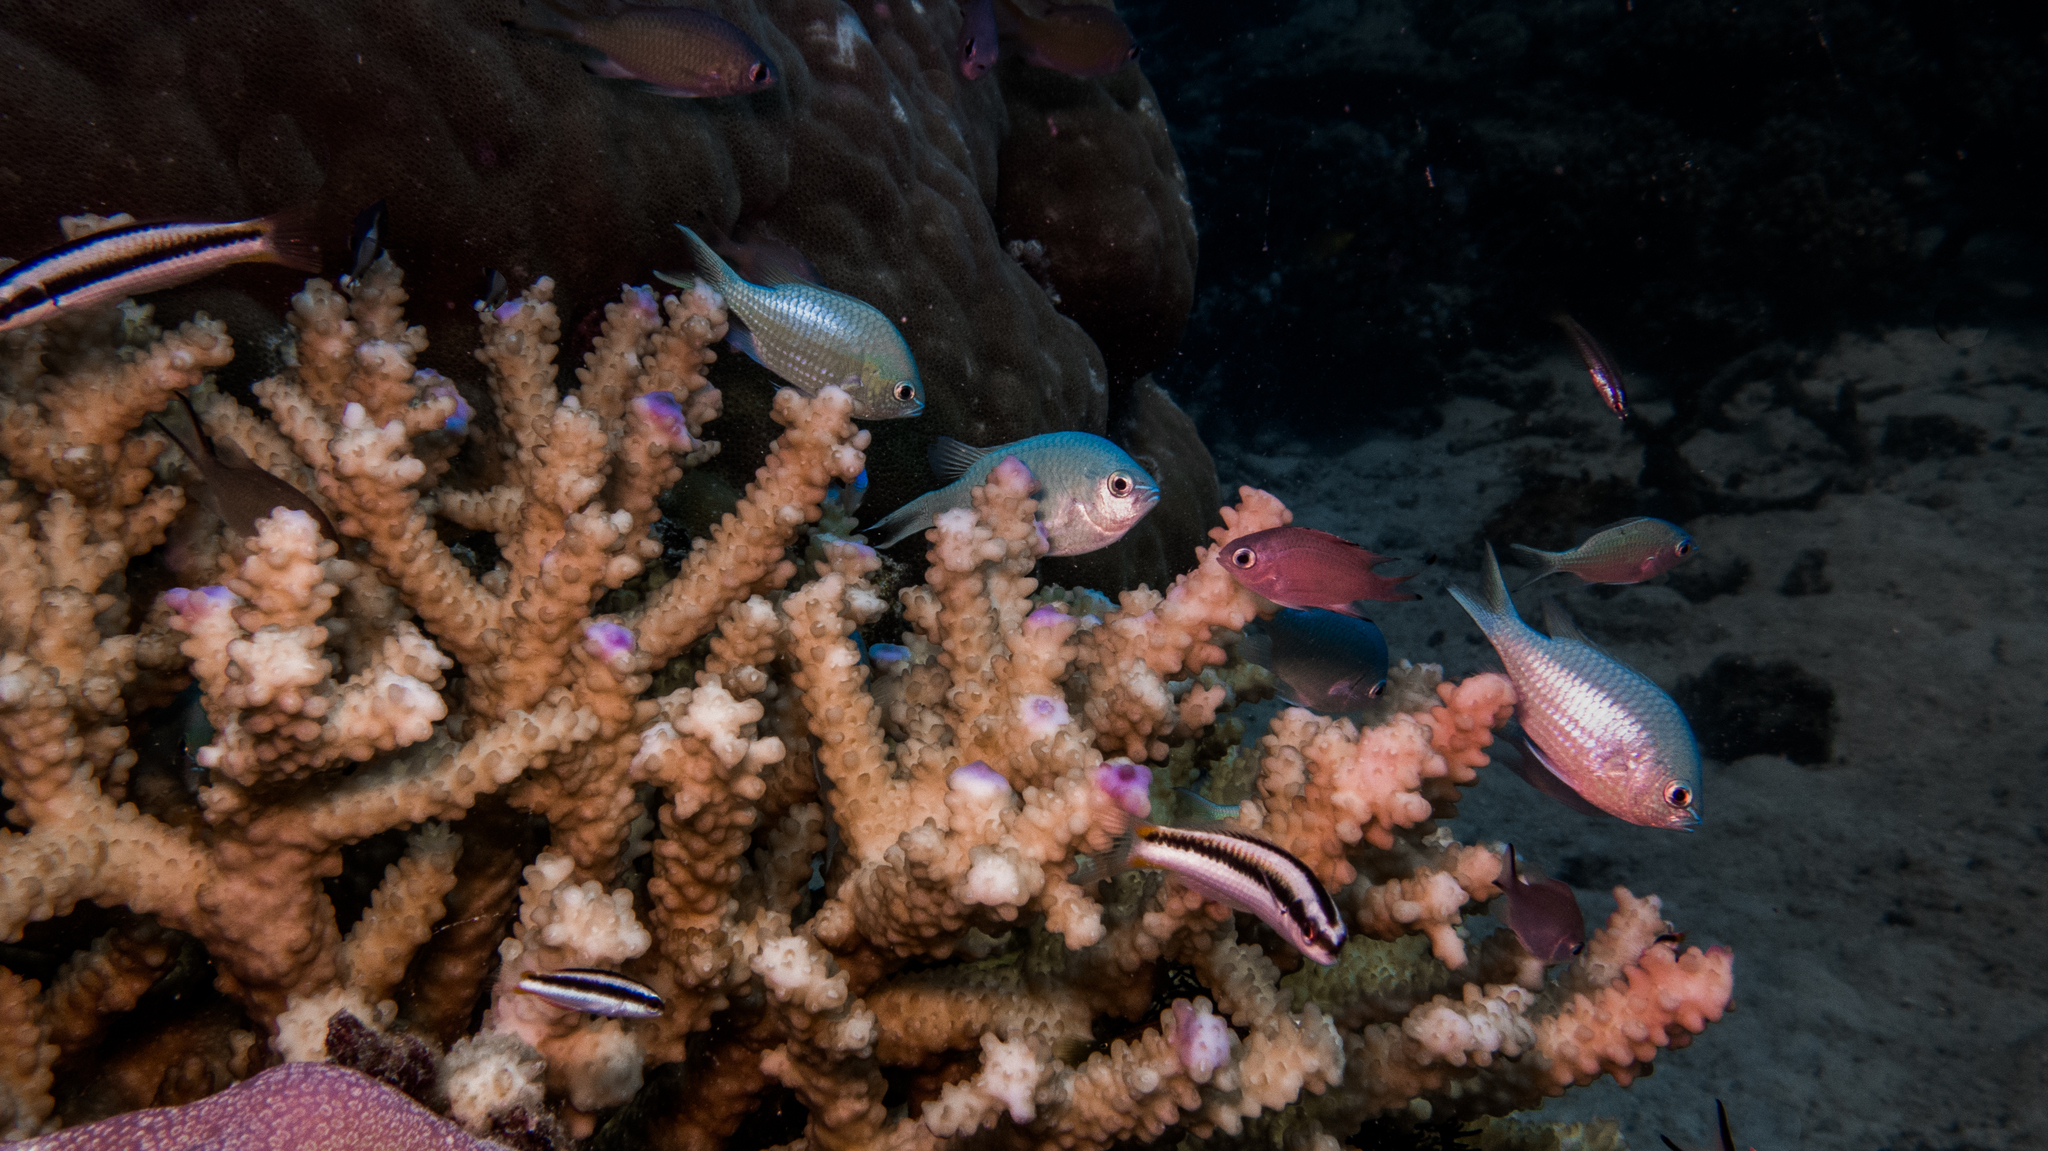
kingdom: Animalia
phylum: Chordata
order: Perciformes
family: Pomacentridae
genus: Chromis
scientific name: Chromis viridis
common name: Blue-green chromis
